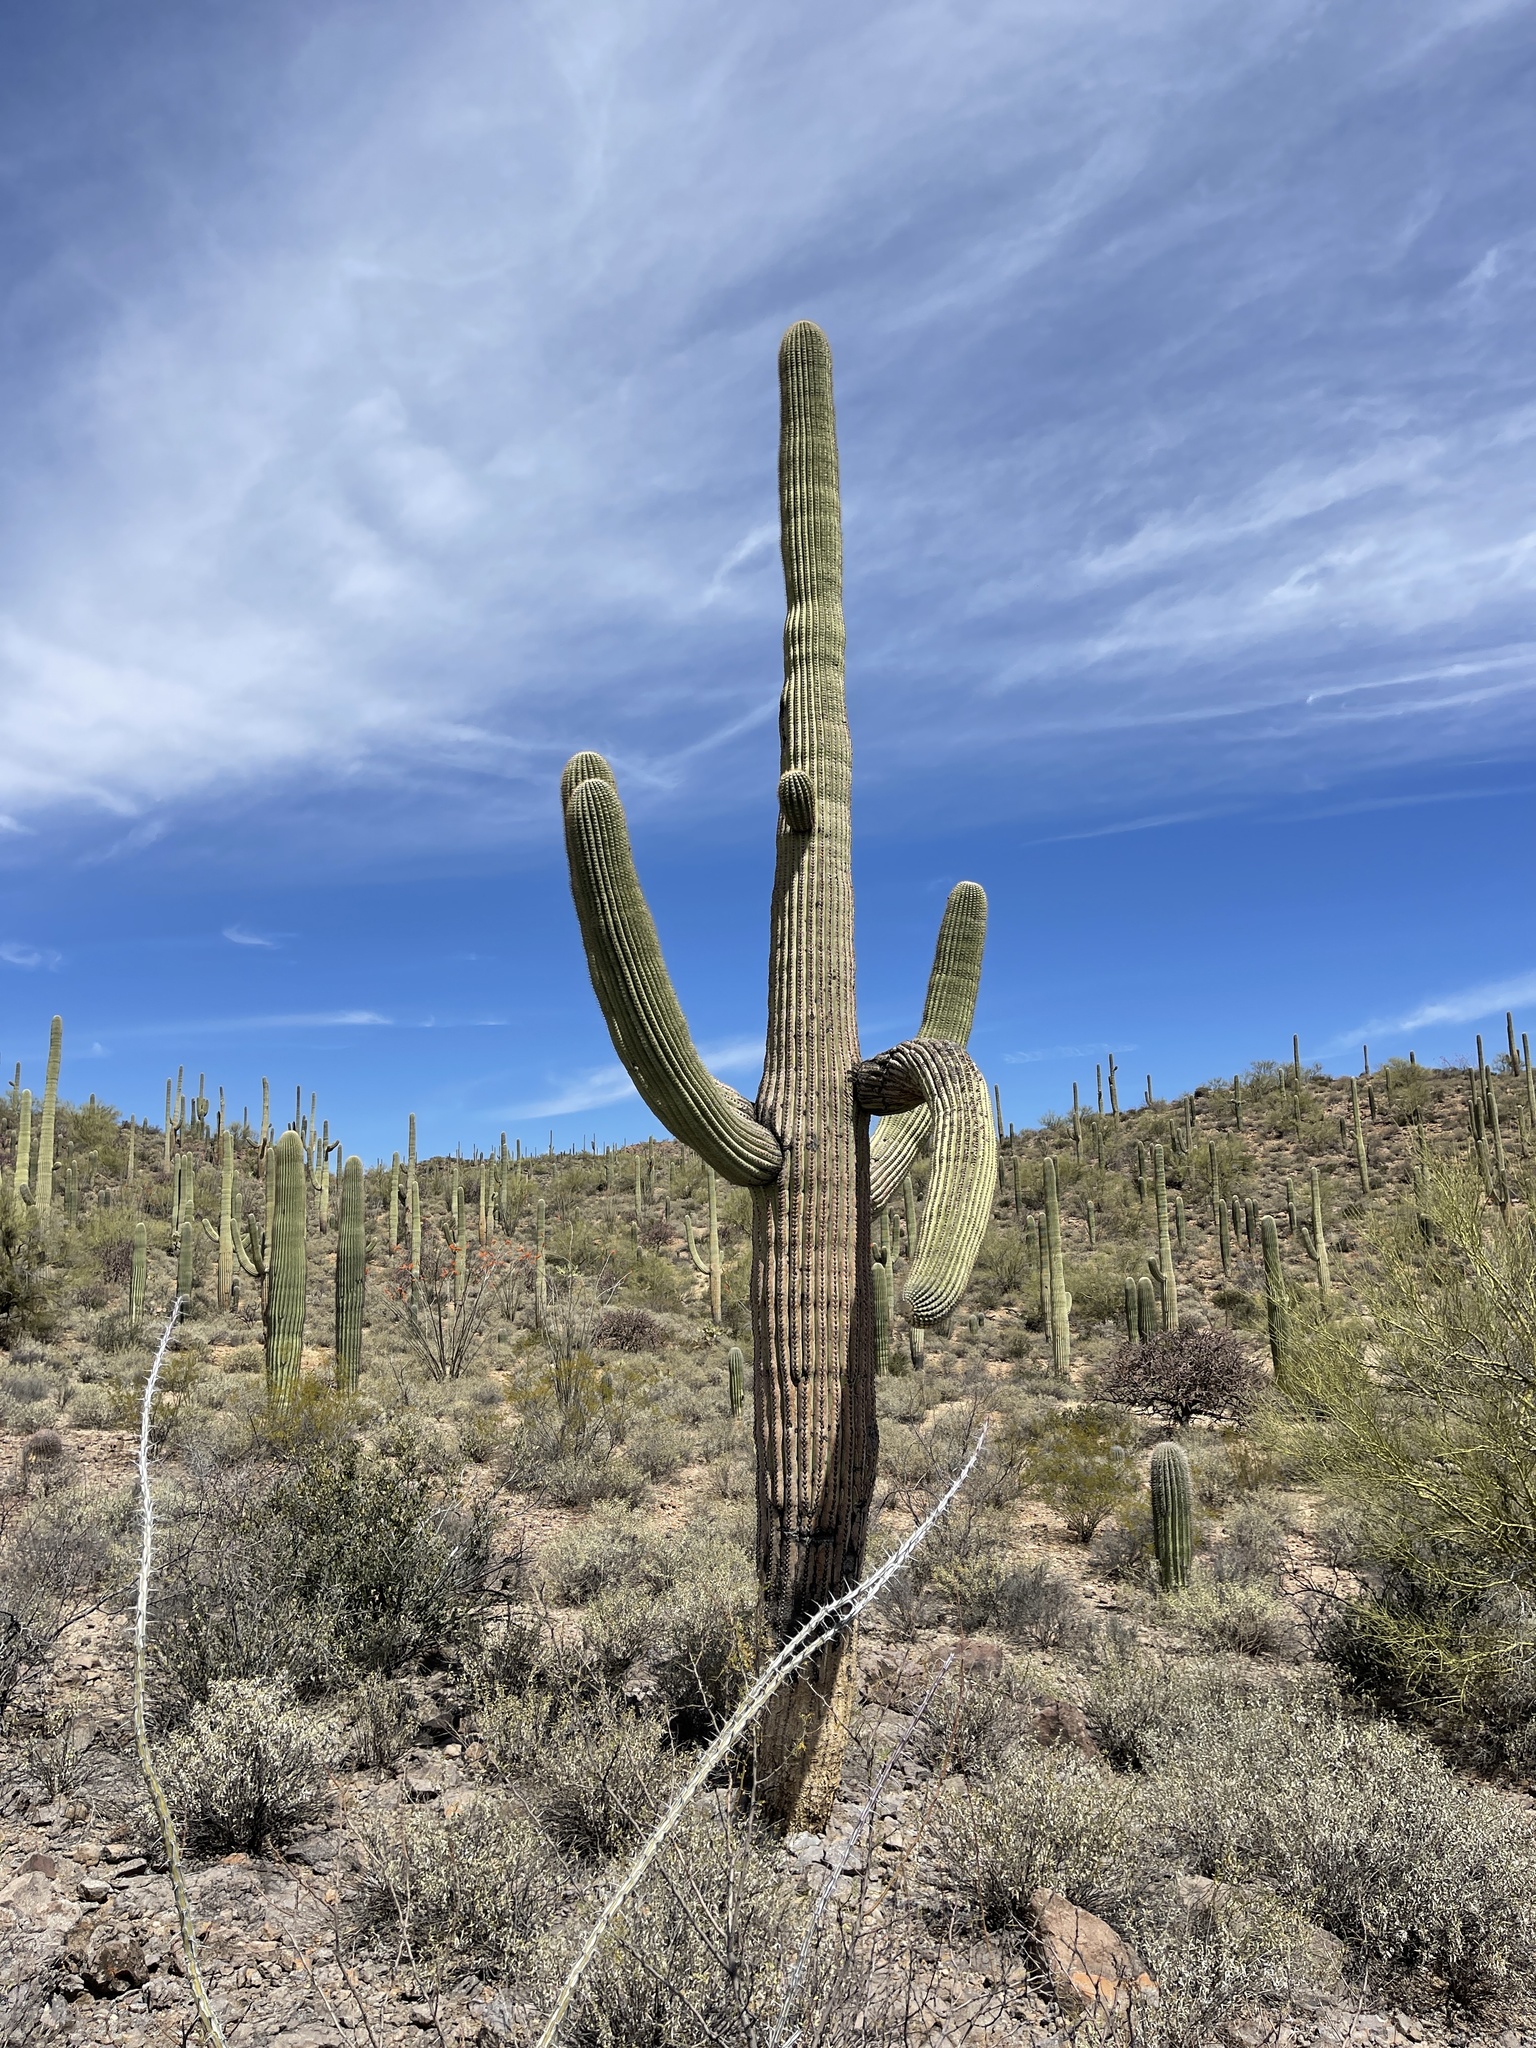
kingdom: Plantae
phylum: Tracheophyta
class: Magnoliopsida
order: Caryophyllales
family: Cactaceae
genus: Carnegiea
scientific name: Carnegiea gigantea
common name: Saguaro
